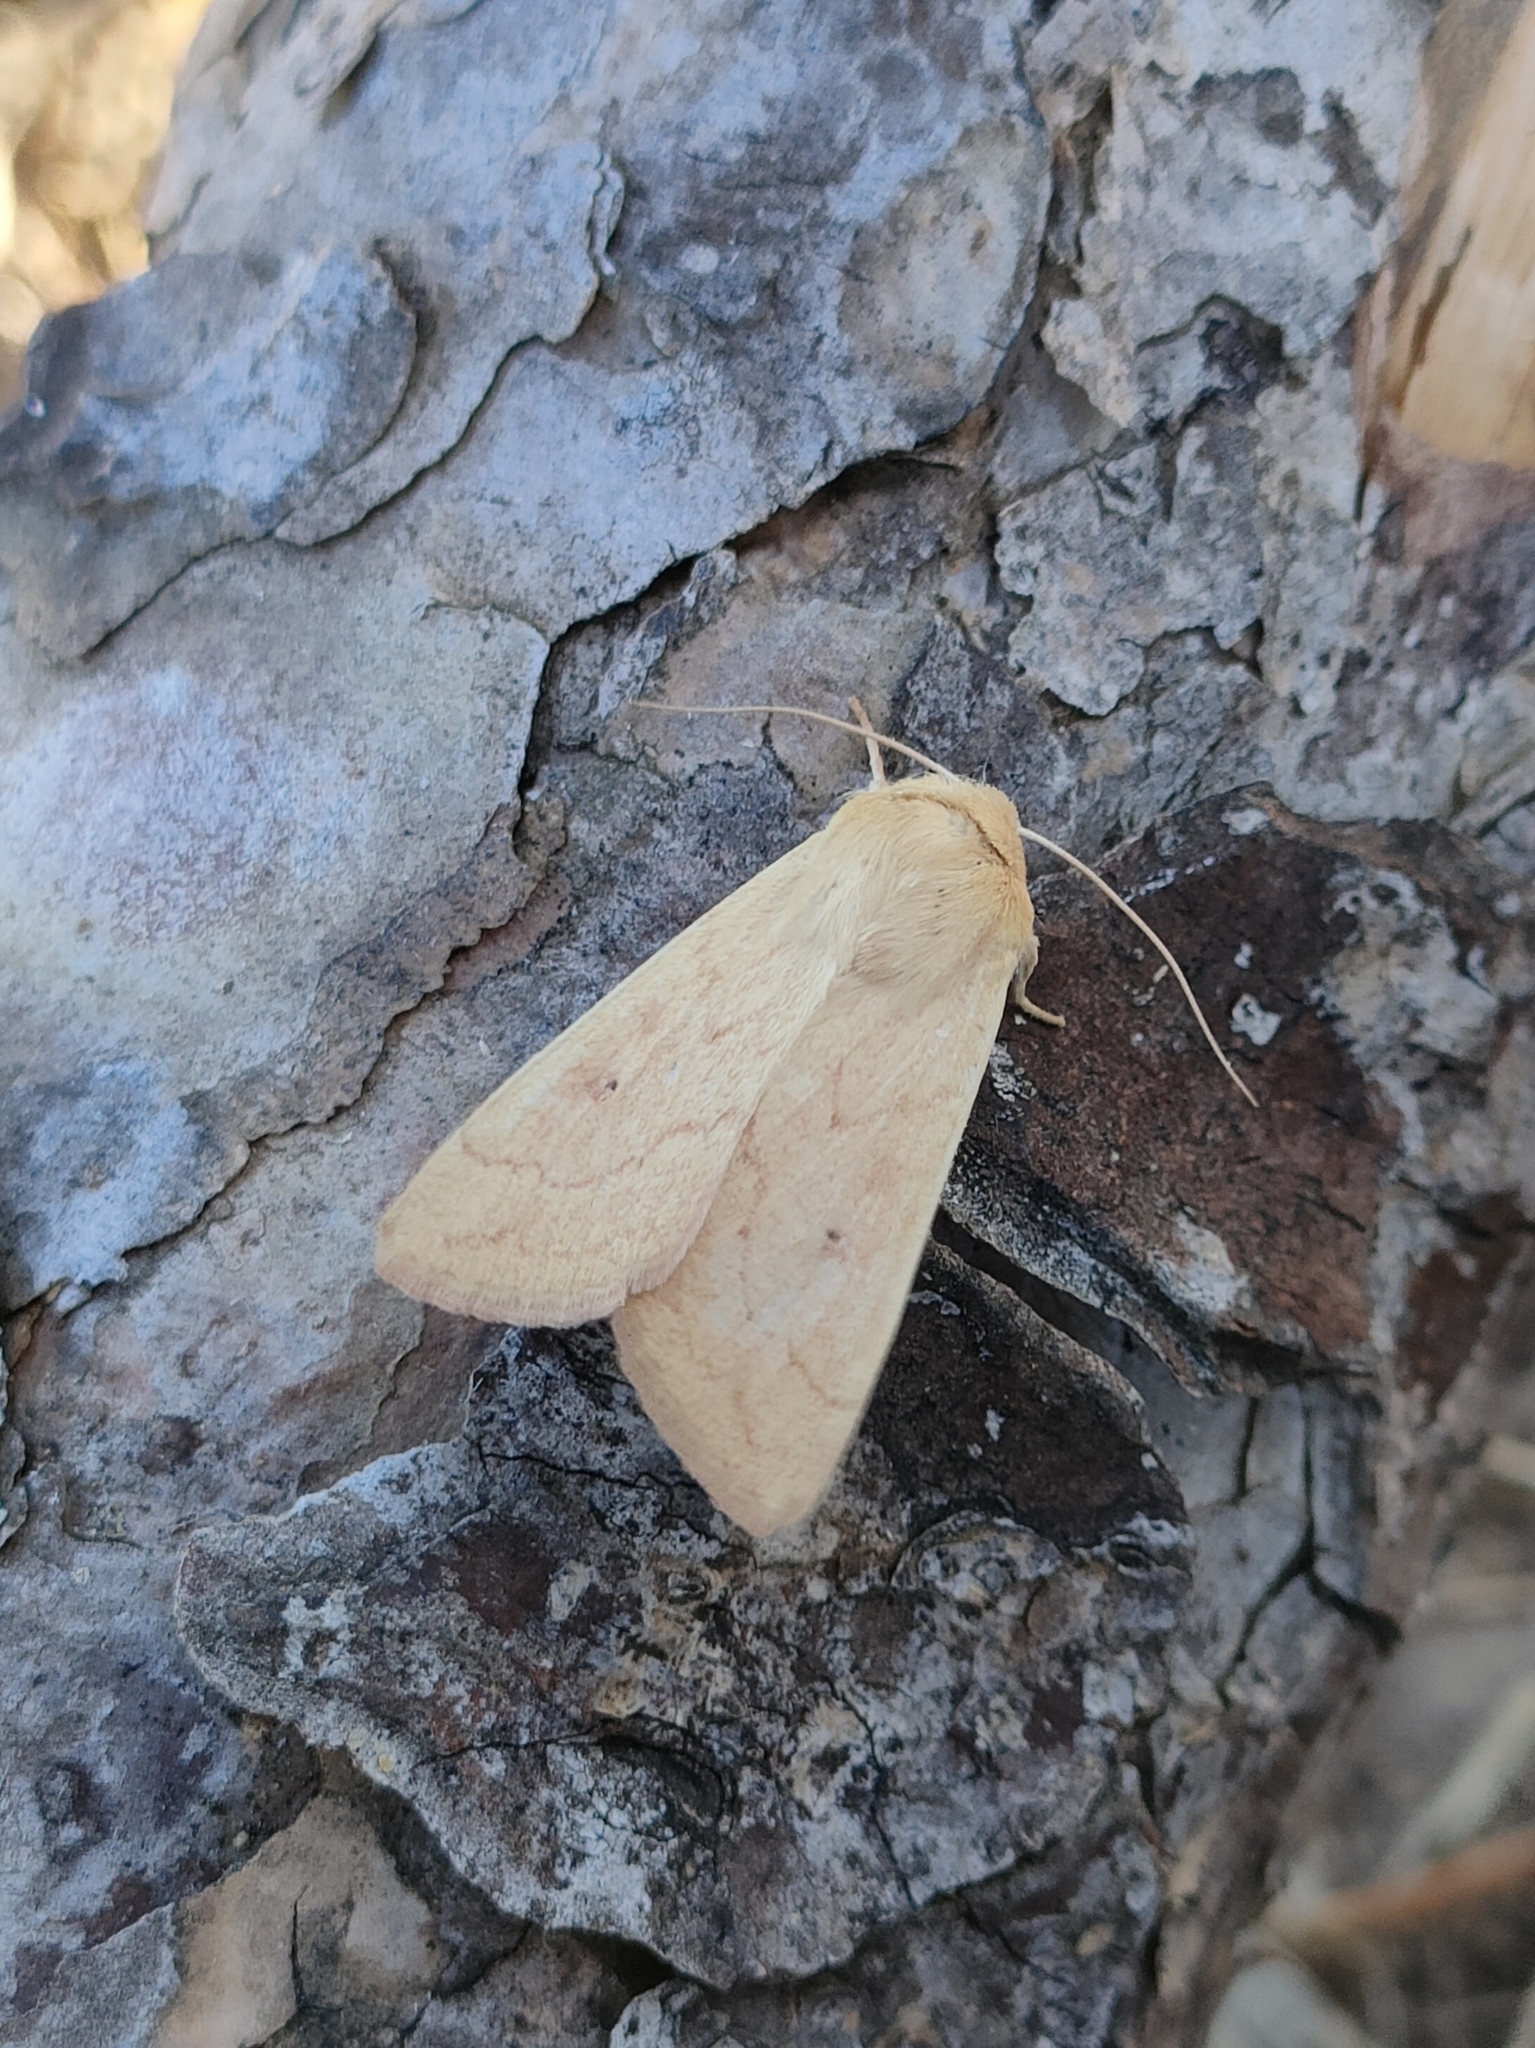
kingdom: Animalia
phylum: Arthropoda
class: Insecta
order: Lepidoptera
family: Noctuidae
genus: Mythimna
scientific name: Mythimna vitellina
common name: Delicate
